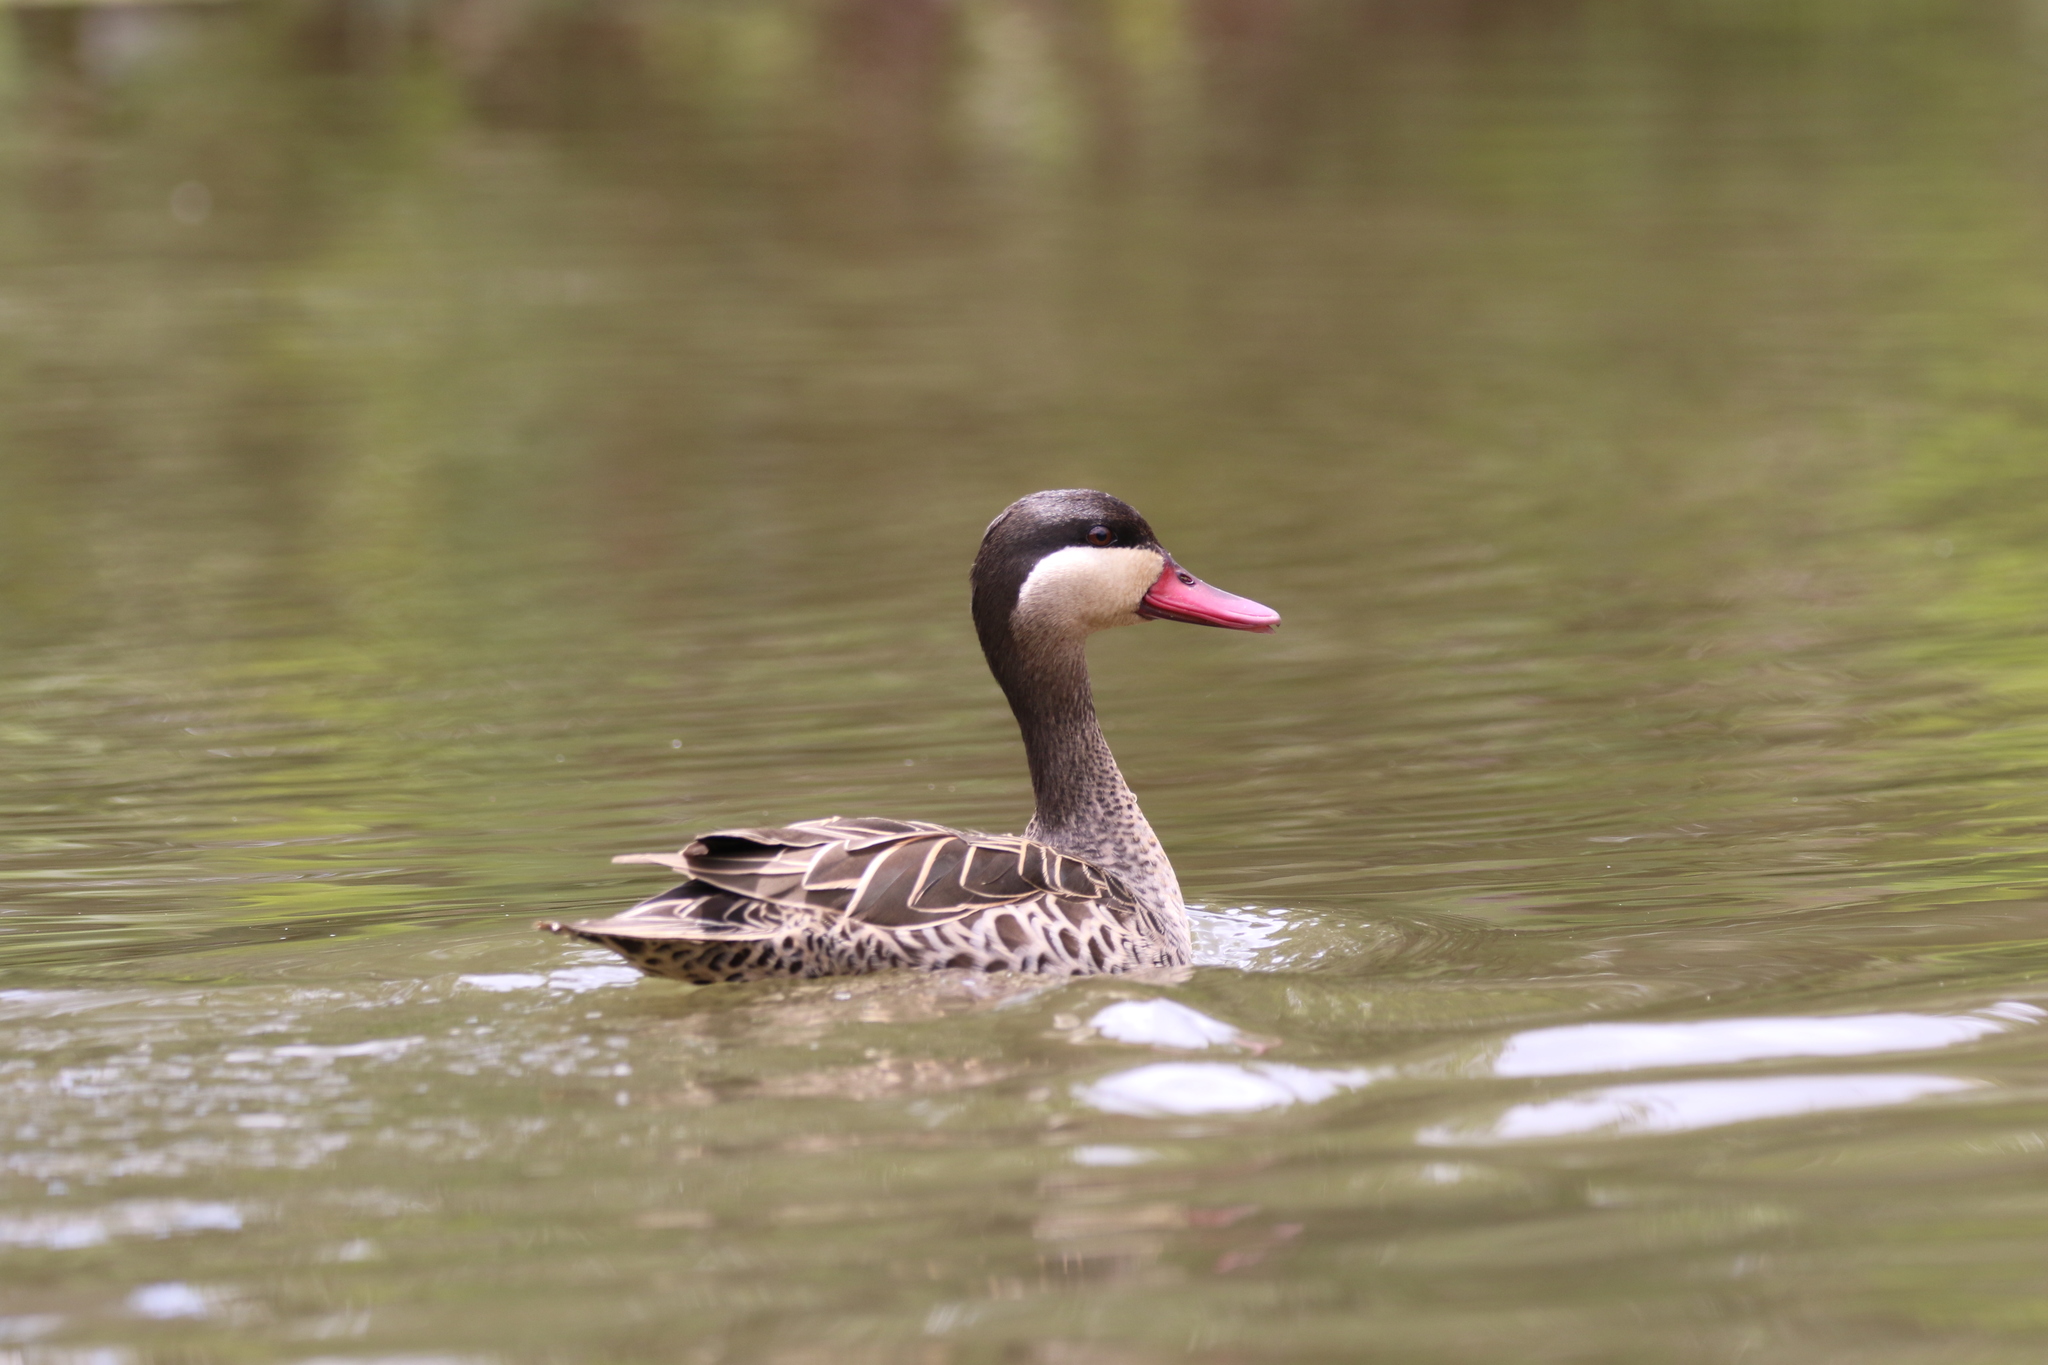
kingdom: Animalia
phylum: Chordata
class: Aves
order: Anseriformes
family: Anatidae
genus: Anas
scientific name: Anas erythrorhyncha
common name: Red-billed teal
